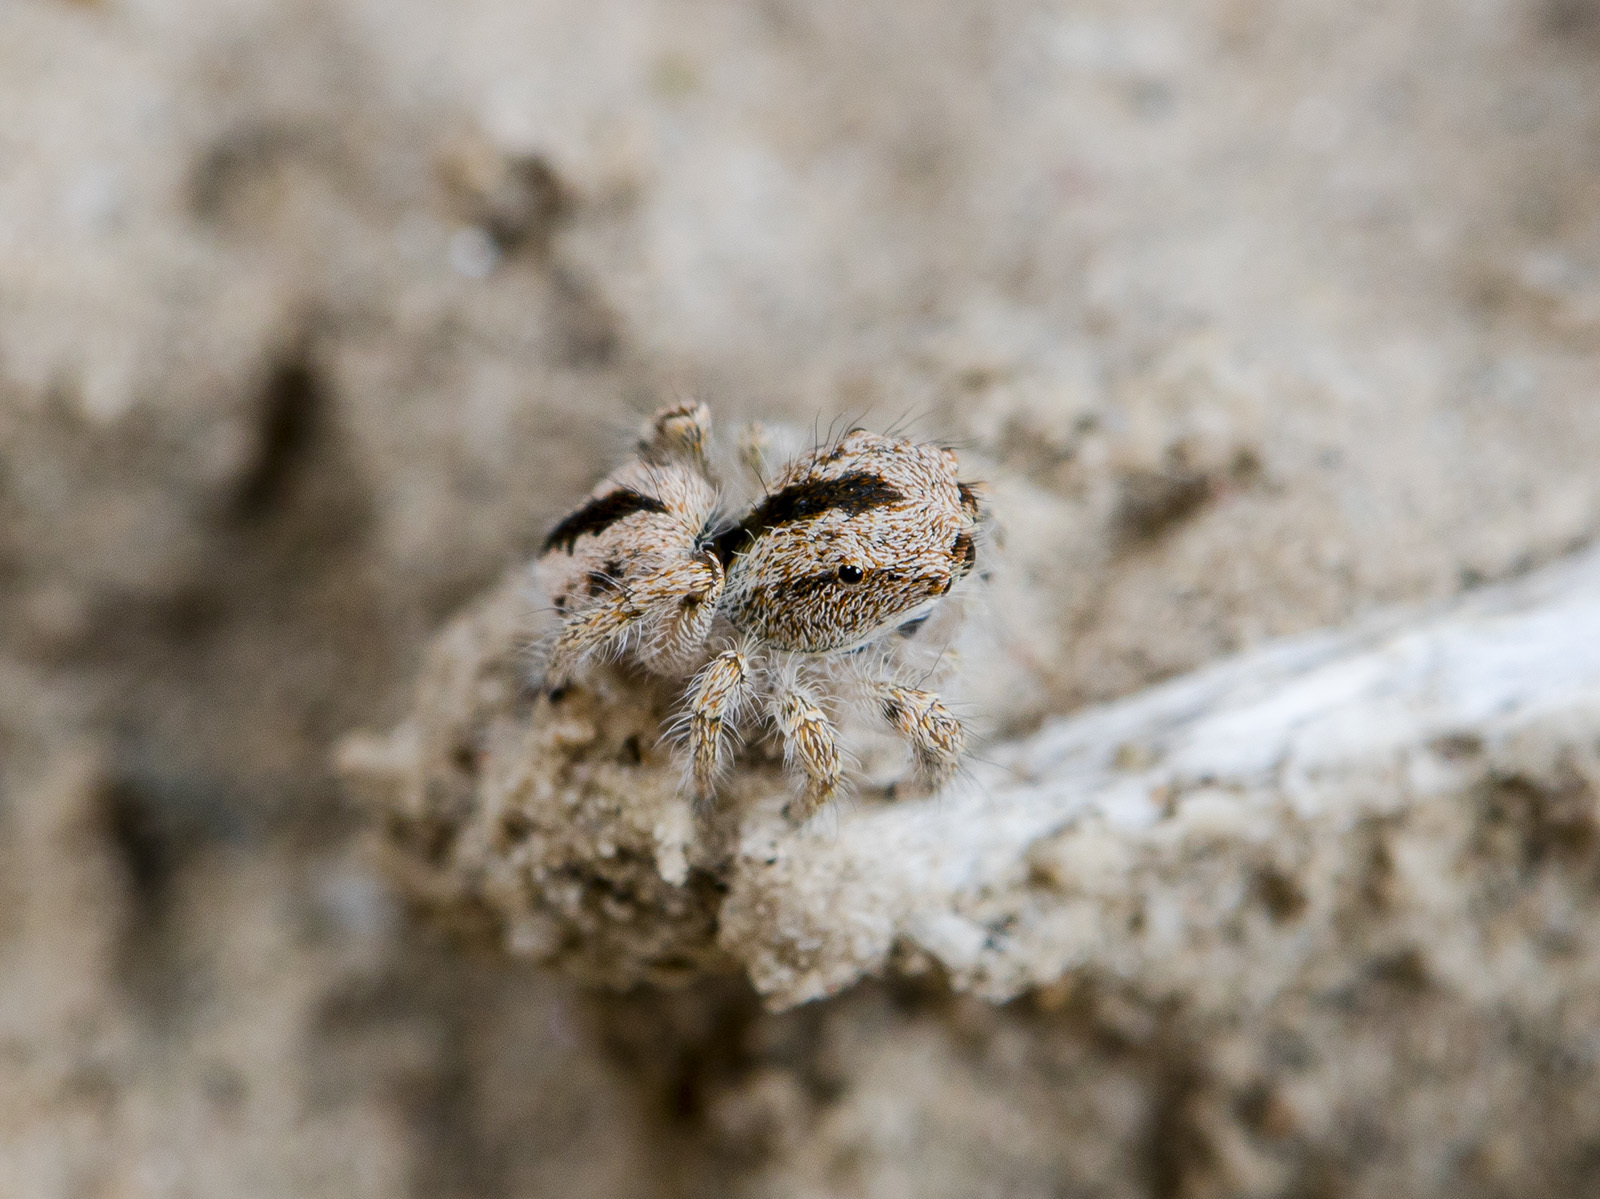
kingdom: Animalia
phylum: Arthropoda
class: Arachnida
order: Araneae
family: Salticidae
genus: Pseudomogrus
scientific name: Pseudomogrus guseinovi
